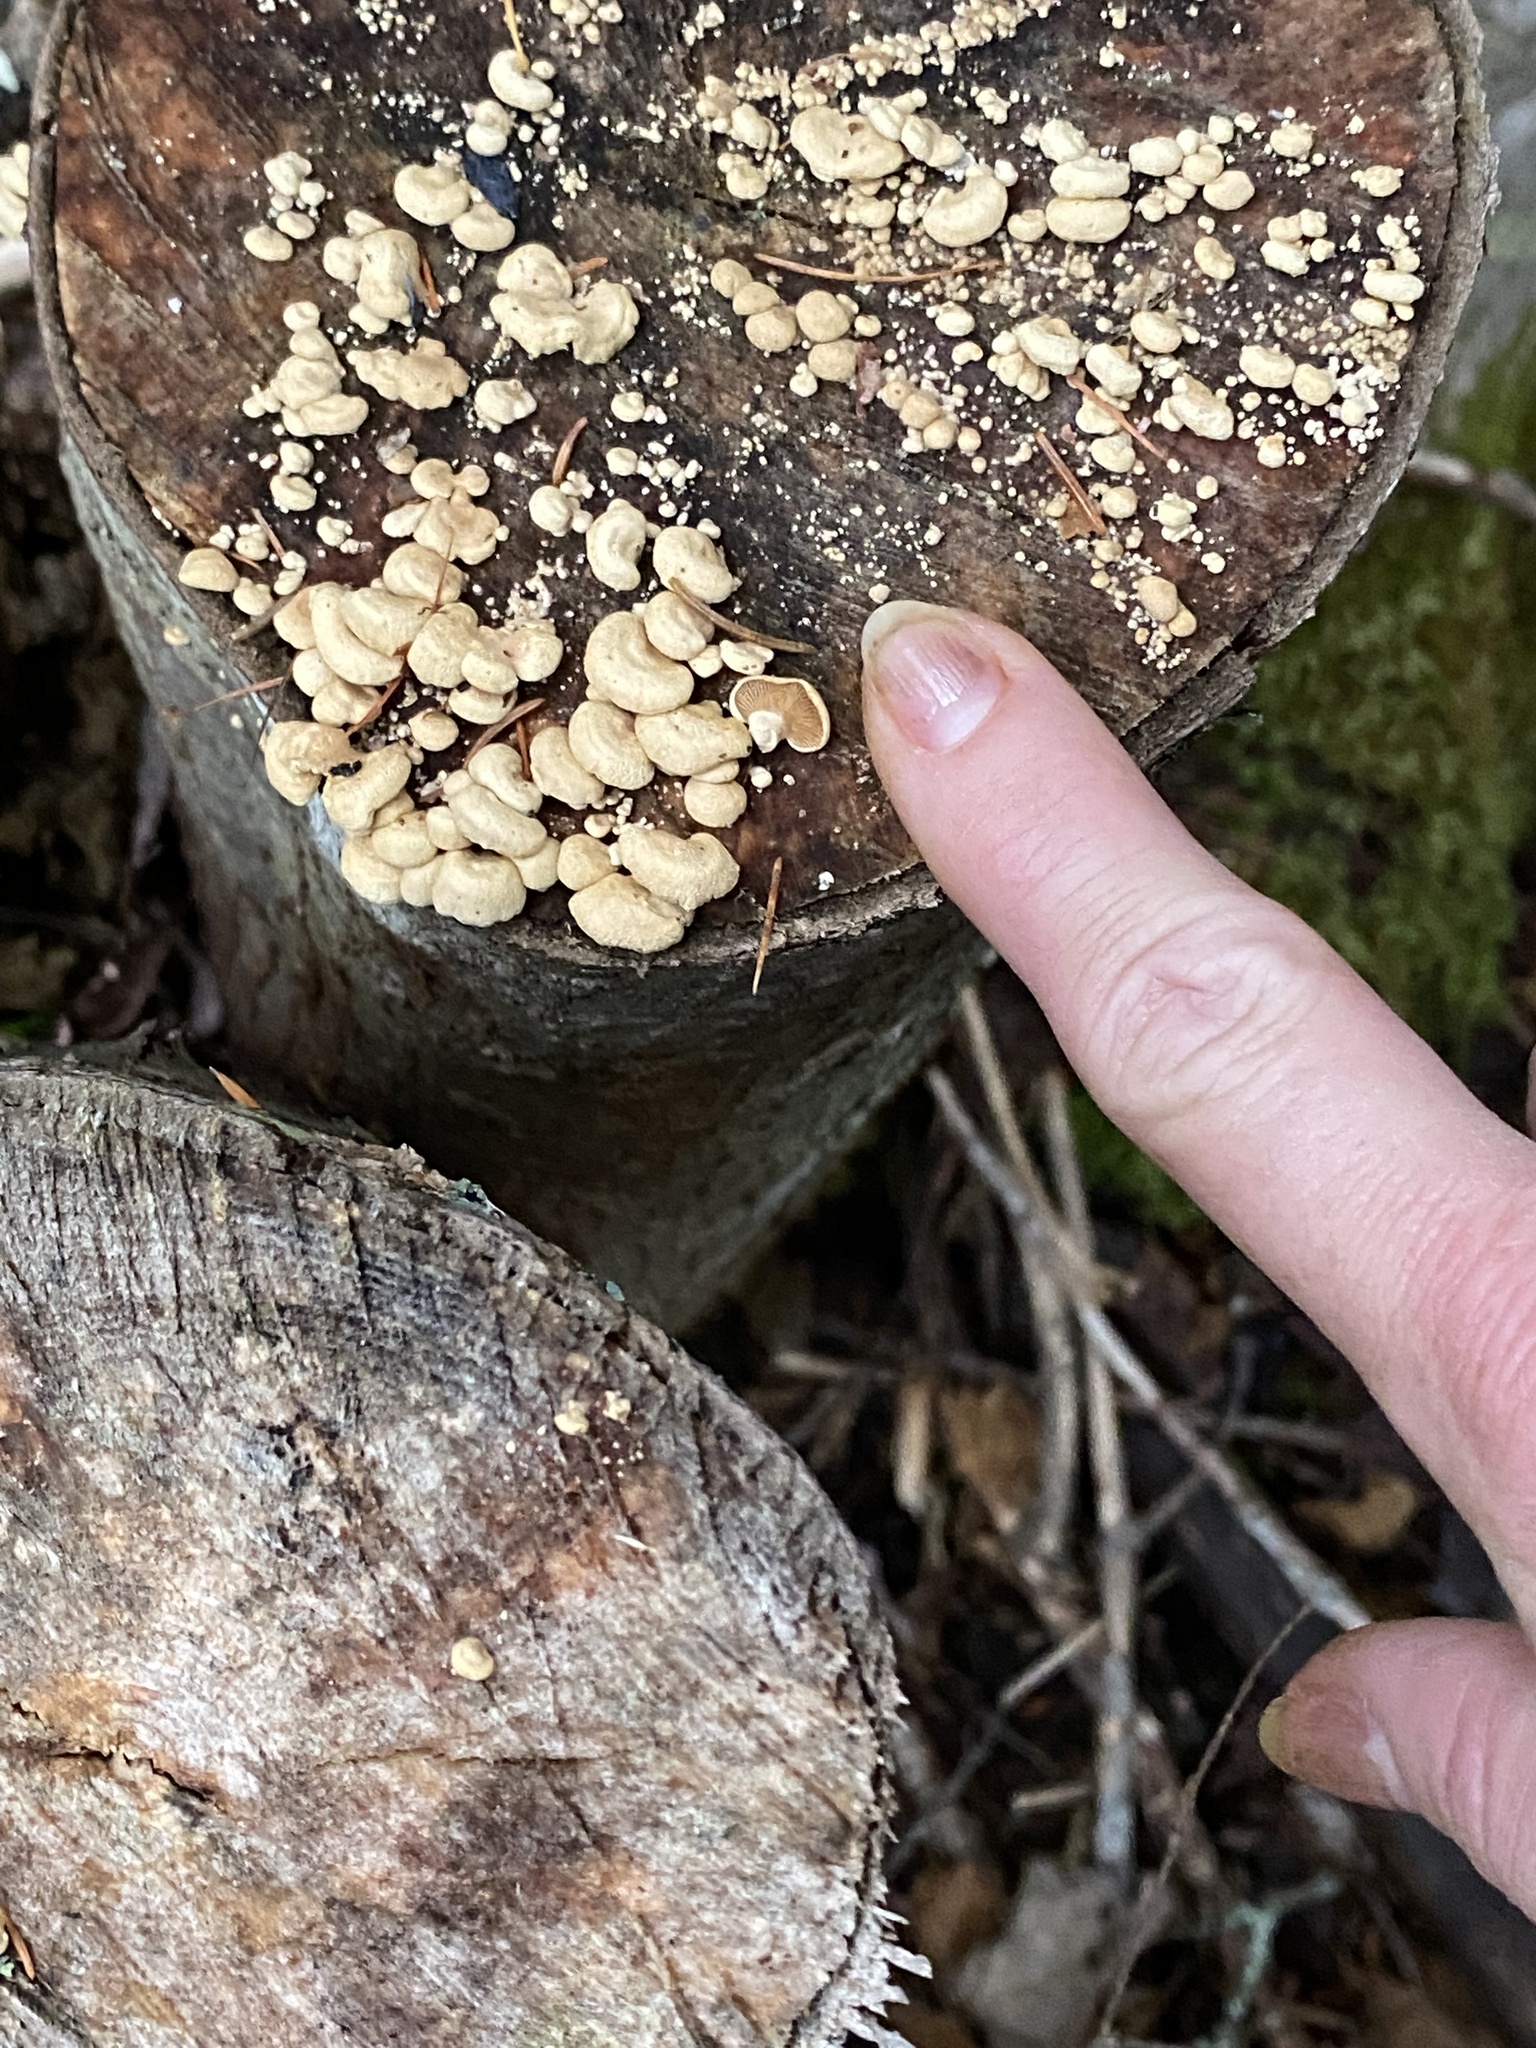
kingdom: Fungi
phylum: Basidiomycota
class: Agaricomycetes
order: Agaricales
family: Mycenaceae
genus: Panellus
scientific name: Panellus stipticus
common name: Bitter oysterling
